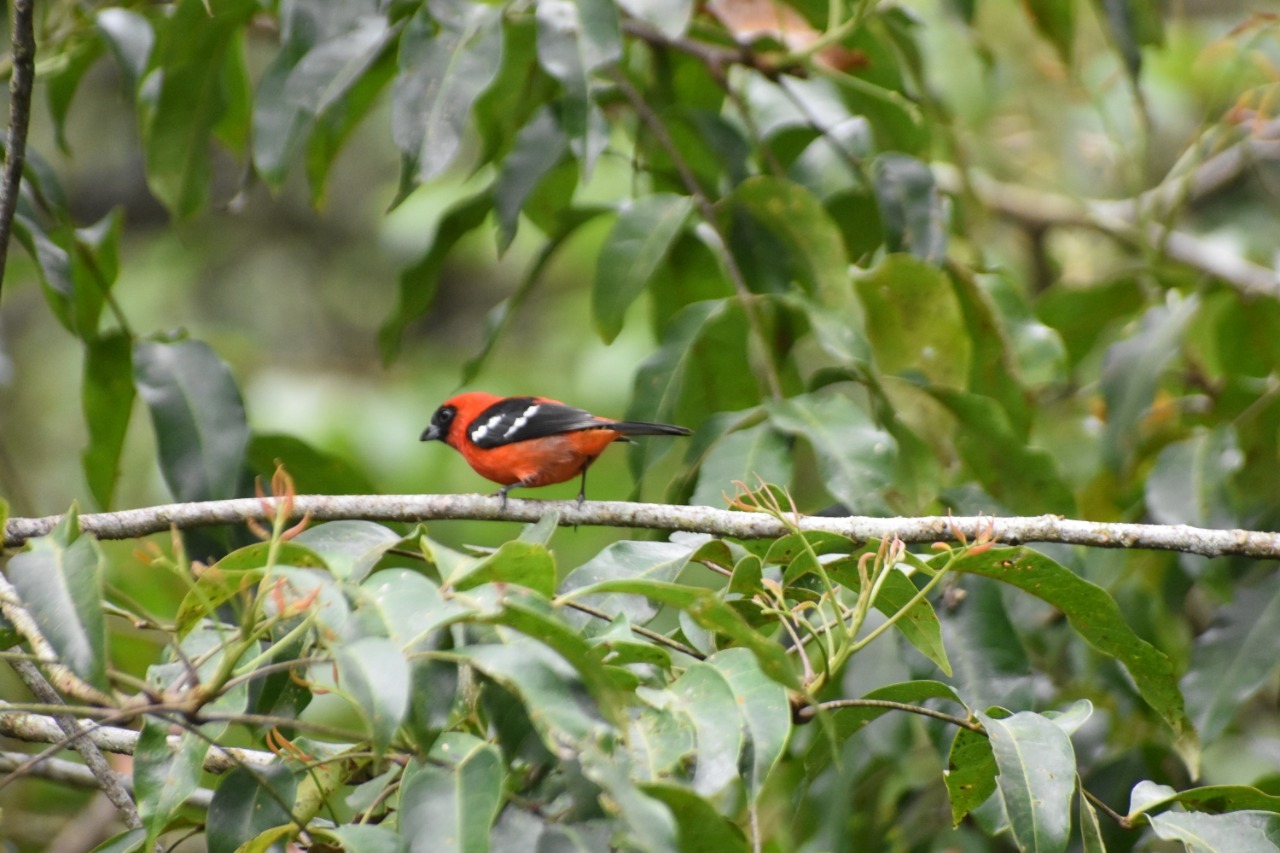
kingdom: Animalia
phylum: Chordata
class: Aves
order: Passeriformes
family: Cardinalidae
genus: Piranga
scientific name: Piranga leucoptera
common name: White-winged tanager
